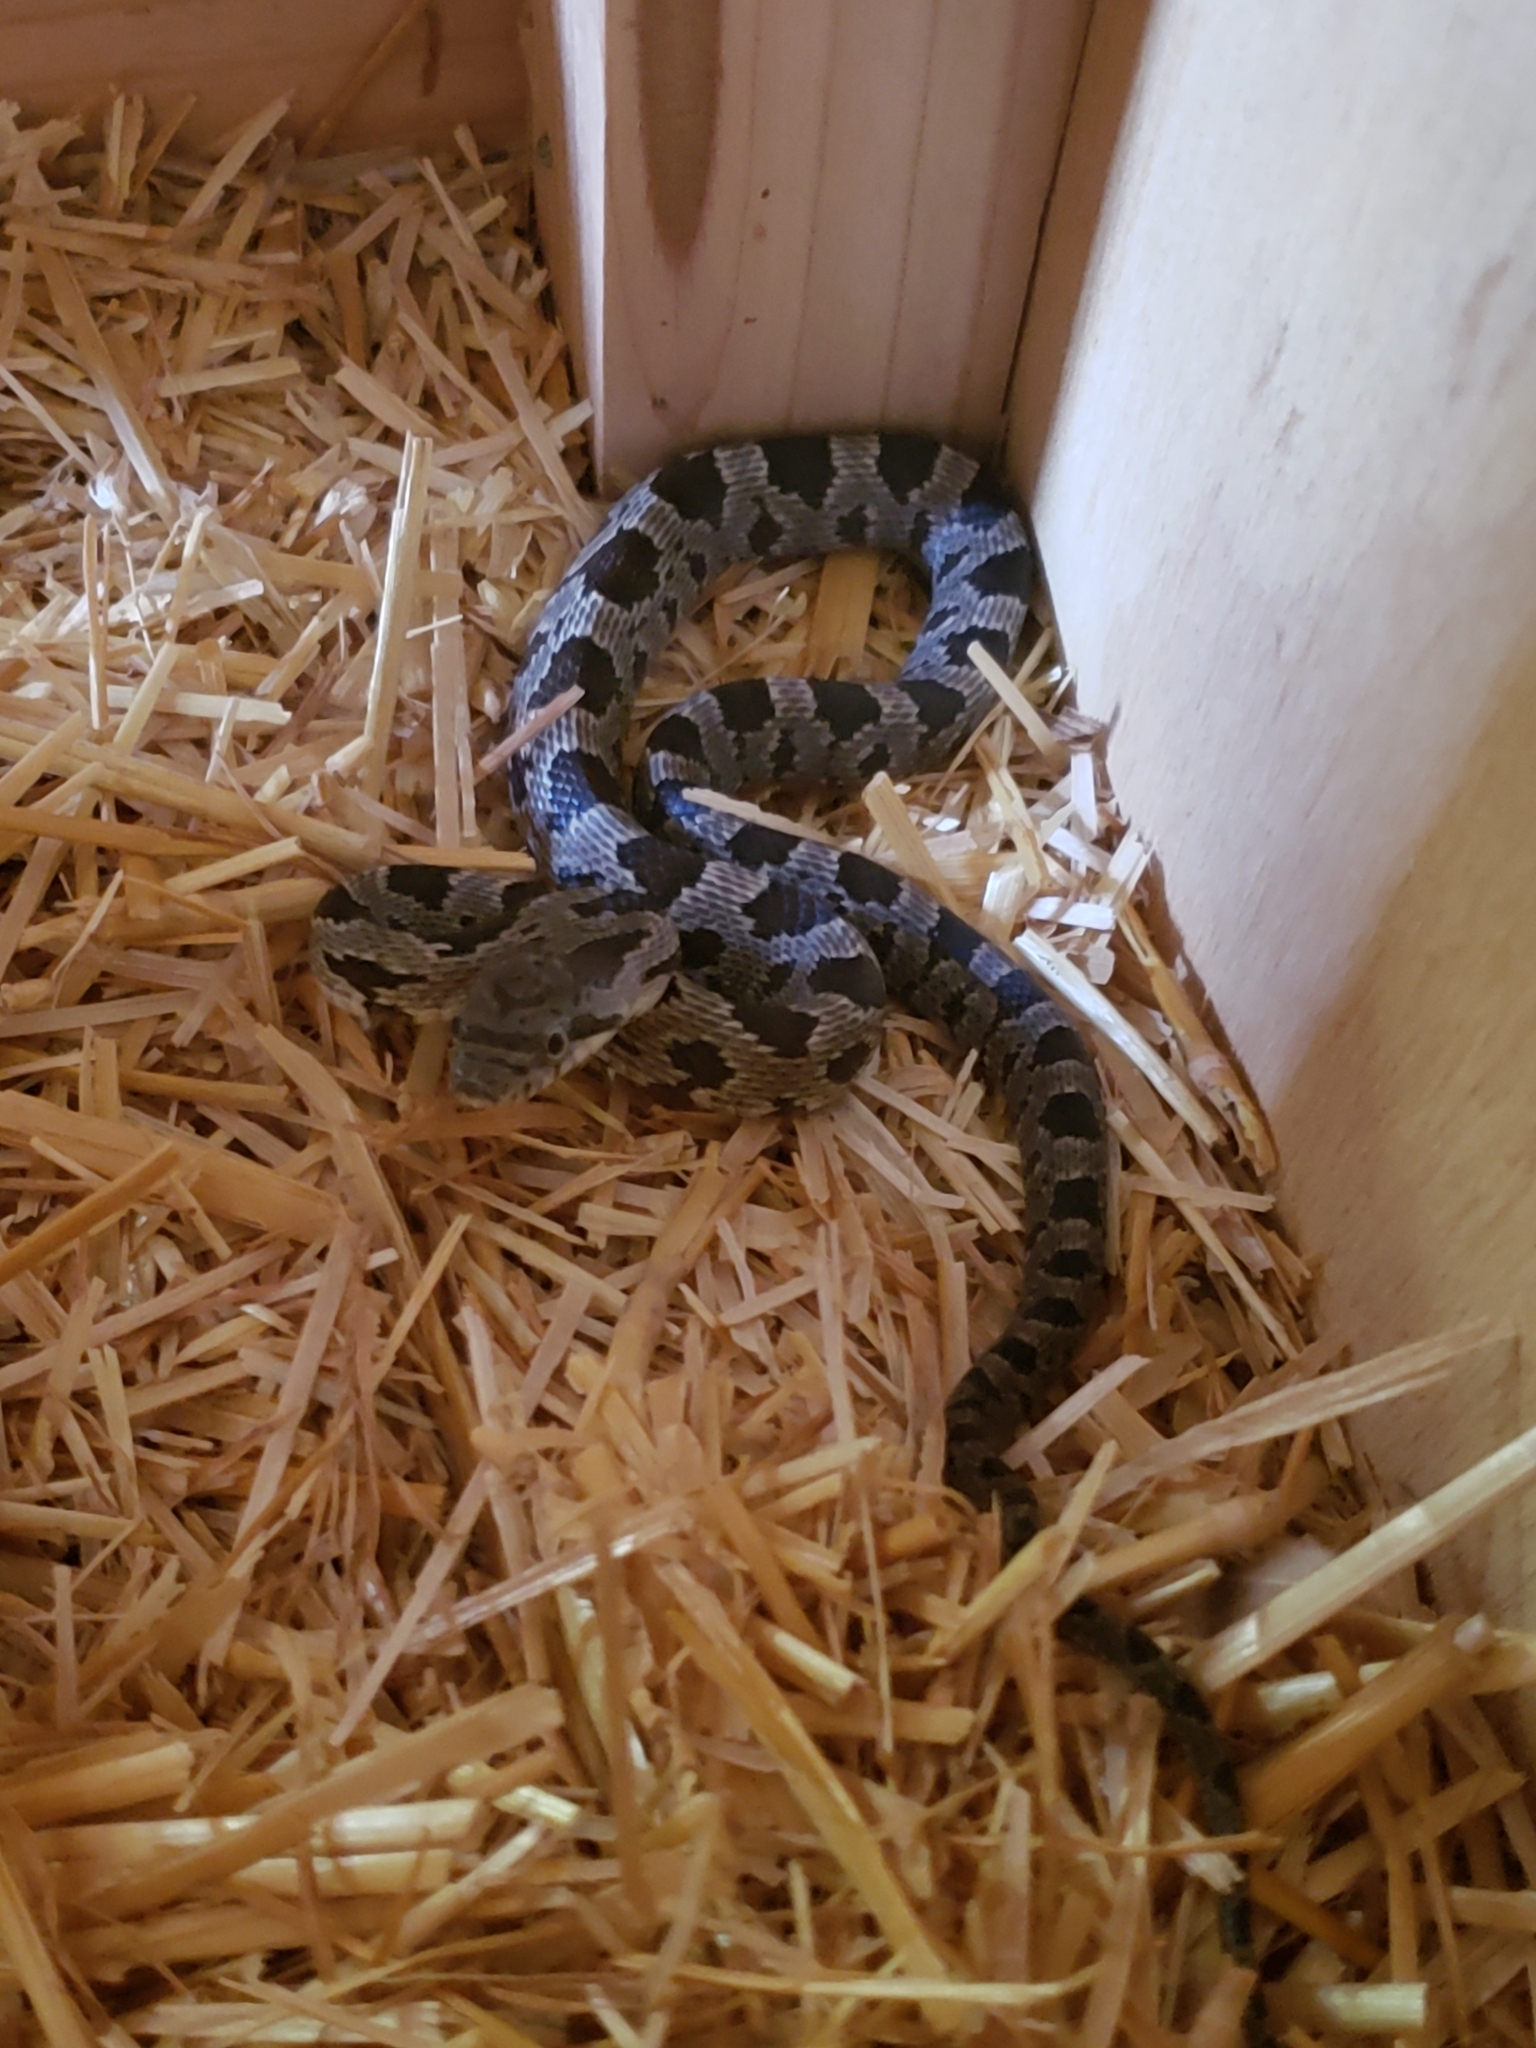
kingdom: Animalia
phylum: Chordata
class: Squamata
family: Colubridae
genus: Pantherophis
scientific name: Pantherophis alleghaniensis
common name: Eastern rat snake
